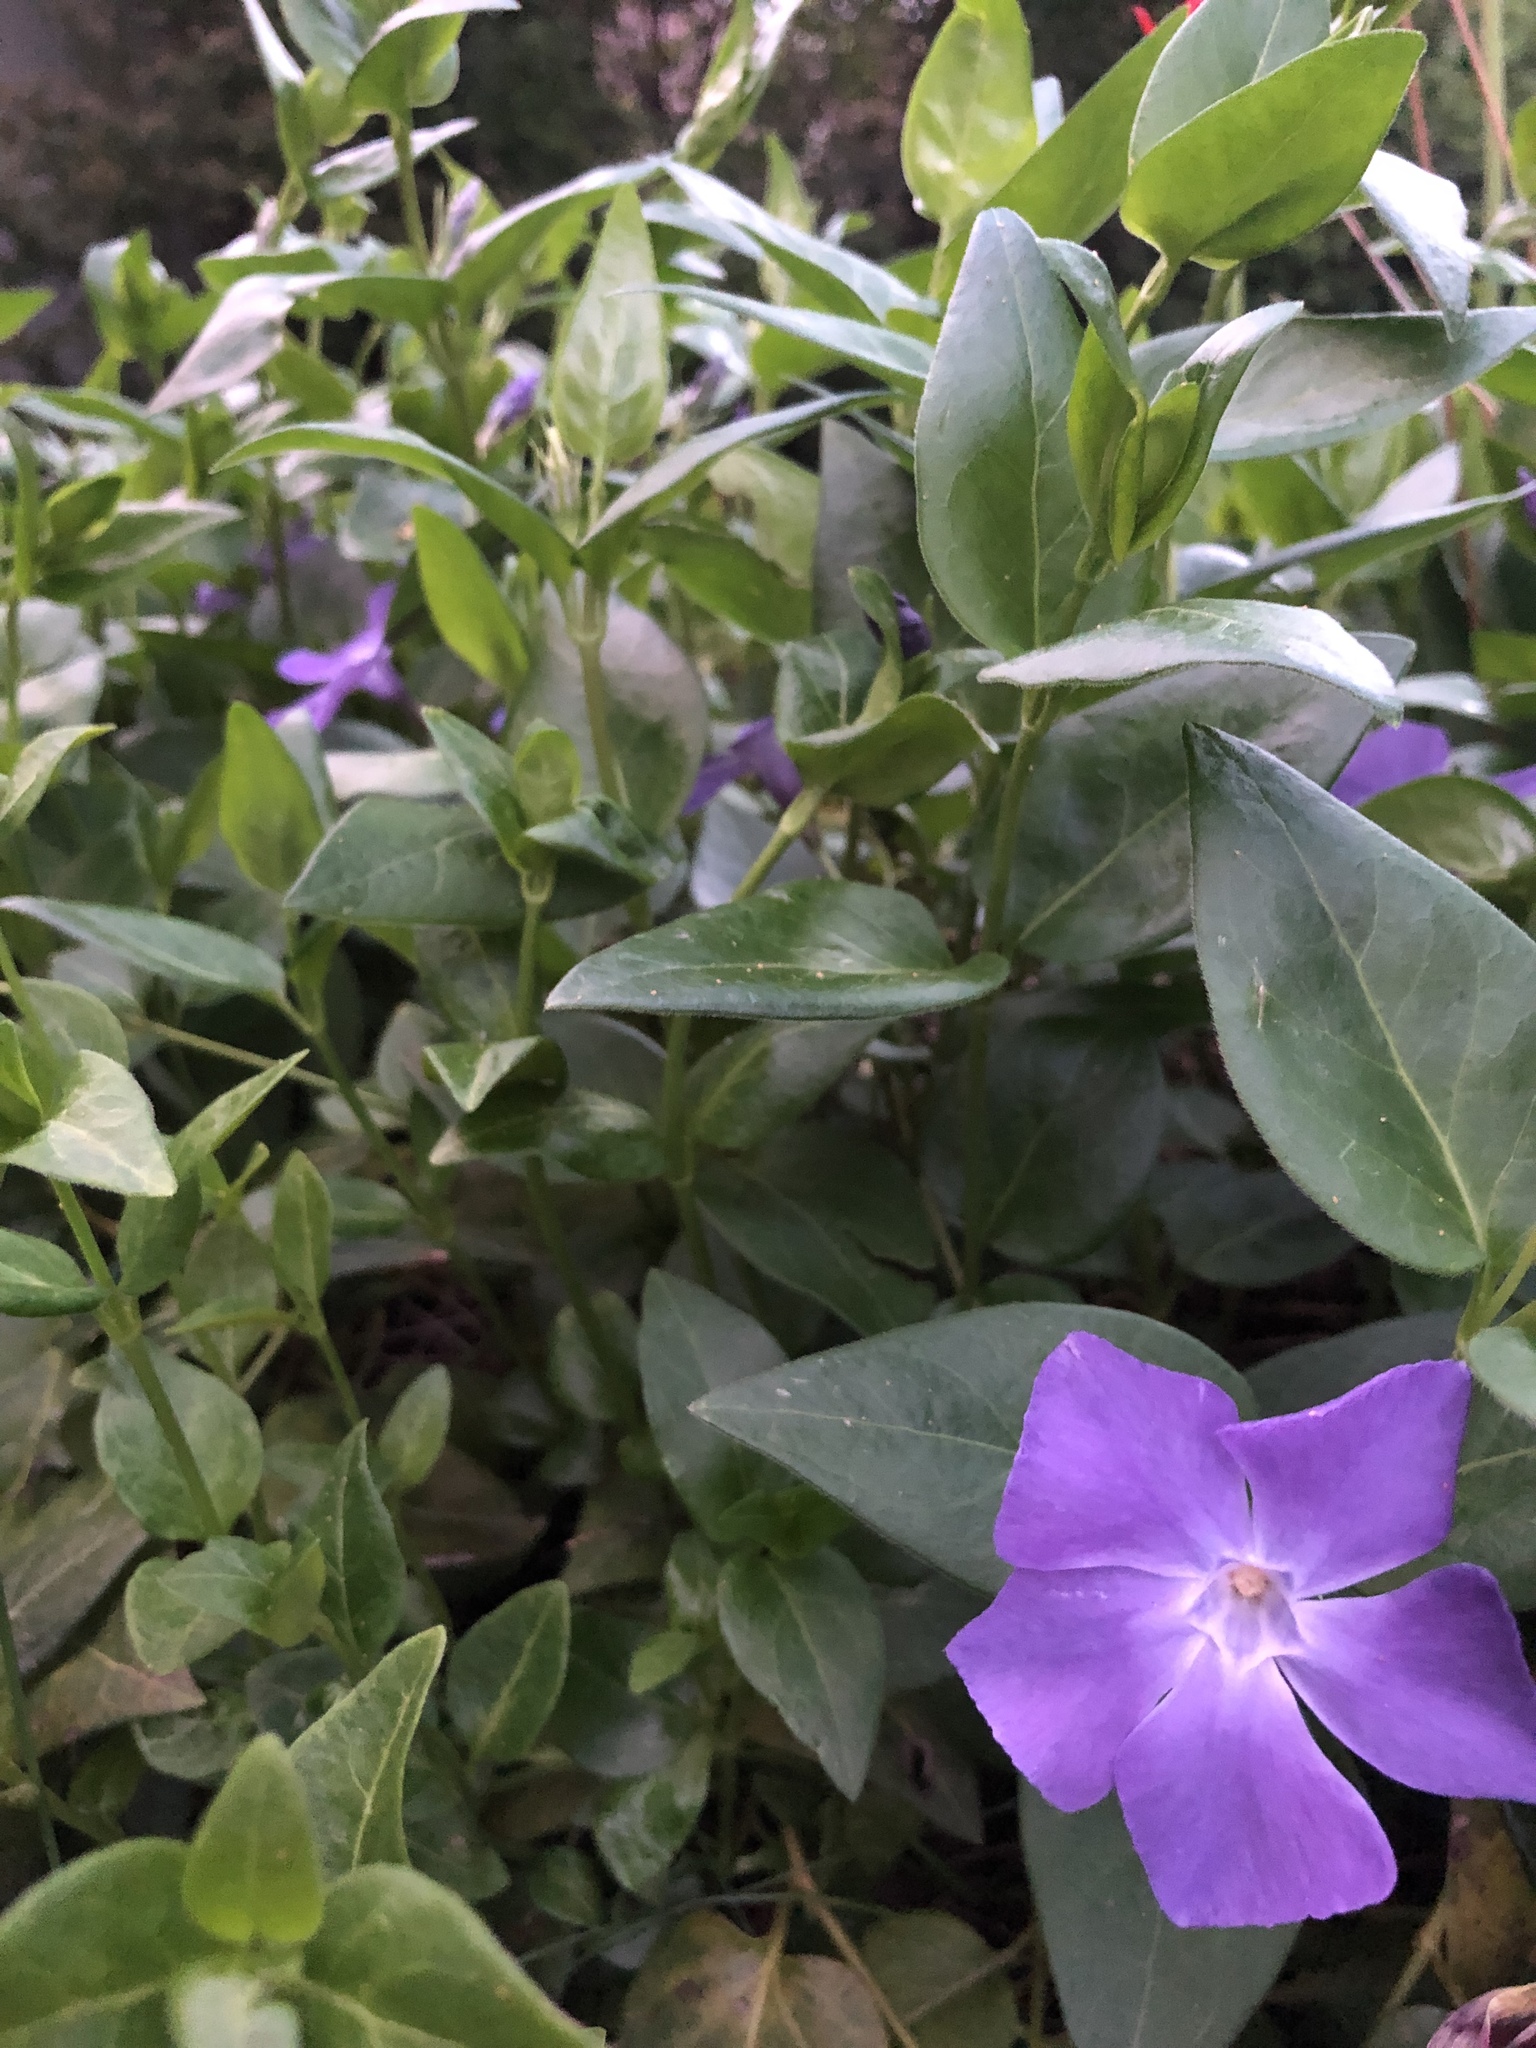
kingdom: Plantae
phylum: Tracheophyta
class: Magnoliopsida
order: Gentianales
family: Apocynaceae
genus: Vinca
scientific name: Vinca major
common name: Greater periwinkle
